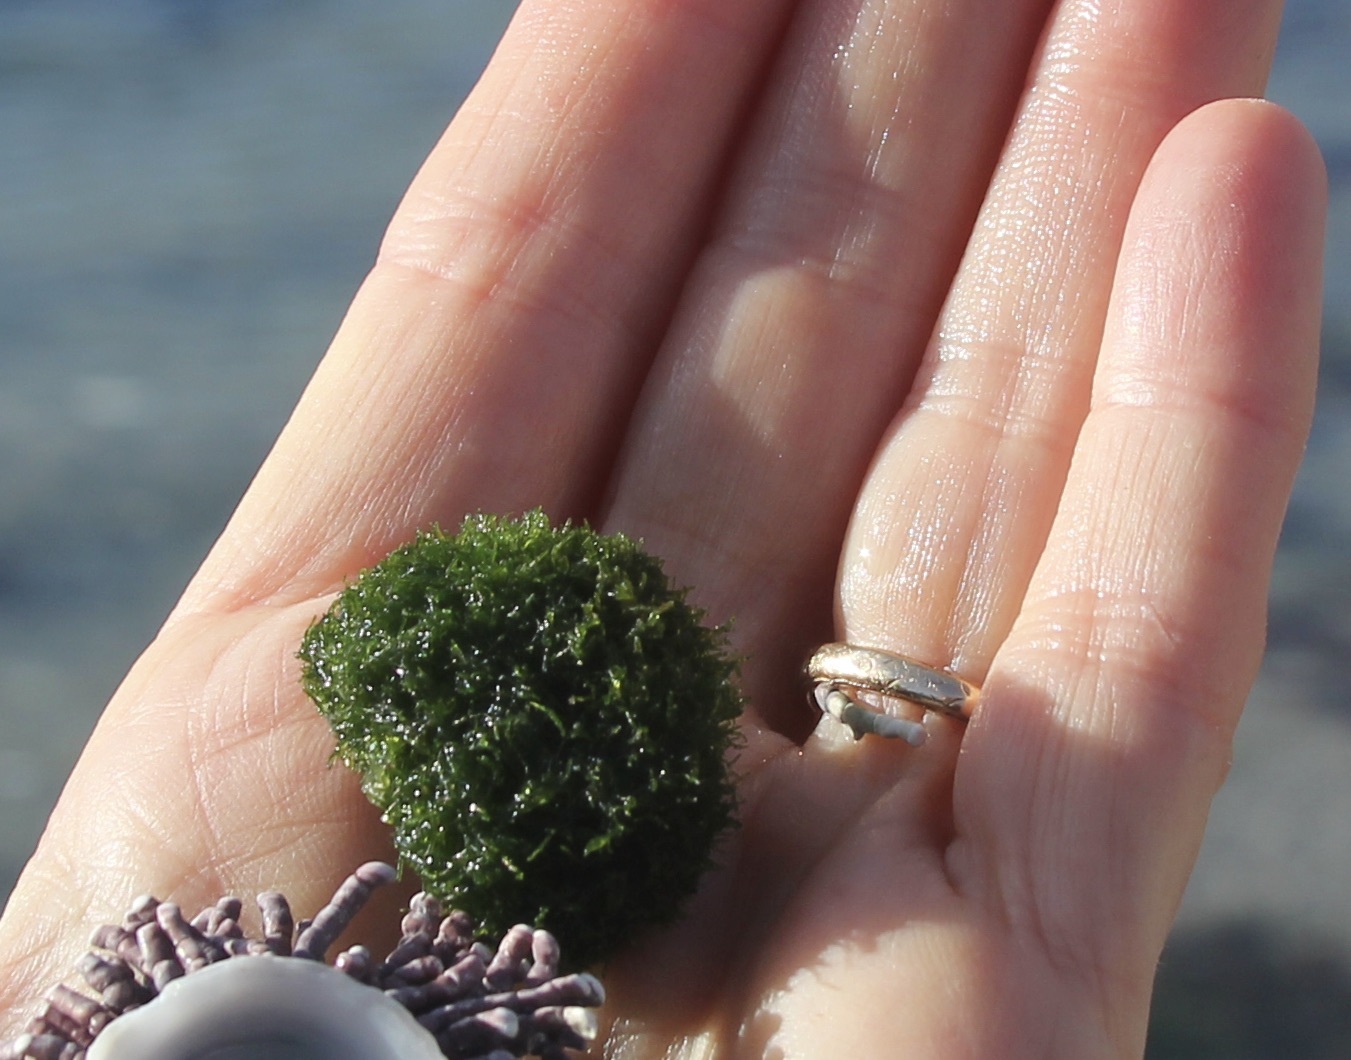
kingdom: Plantae
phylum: Chlorophyta
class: Ulvophyceae
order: Cladophorales
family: Cladophoraceae
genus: Cladophora
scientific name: Cladophora columbiana
